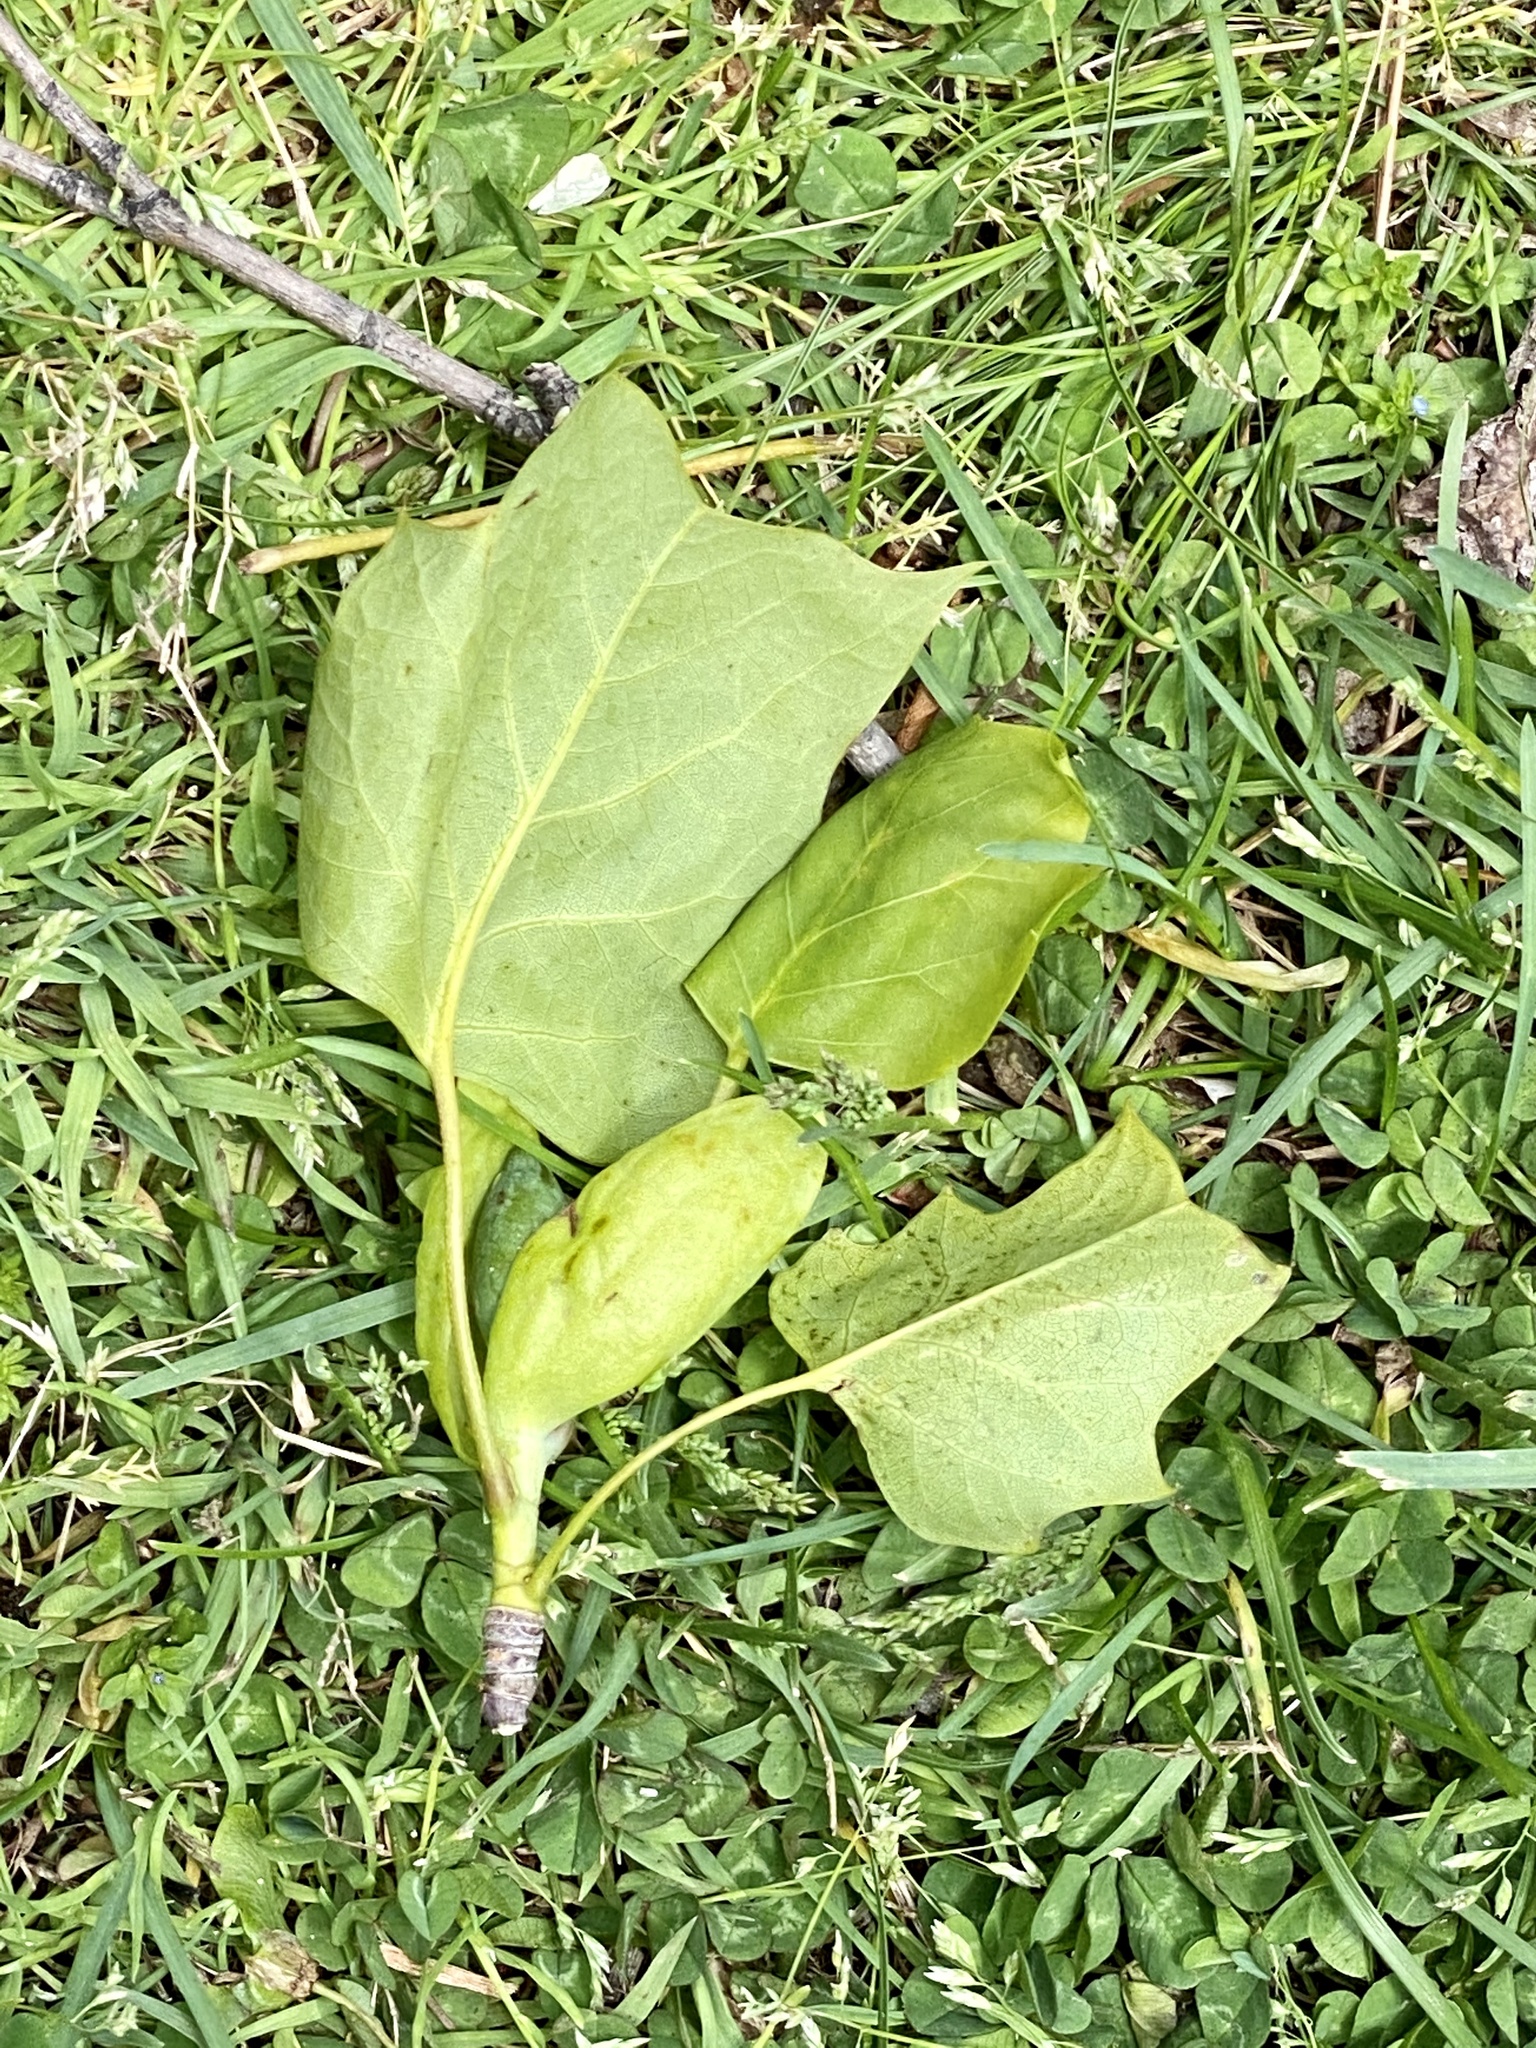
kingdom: Plantae
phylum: Tracheophyta
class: Magnoliopsida
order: Magnoliales
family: Magnoliaceae
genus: Liriodendron
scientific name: Liriodendron tulipifera
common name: Tulip tree
